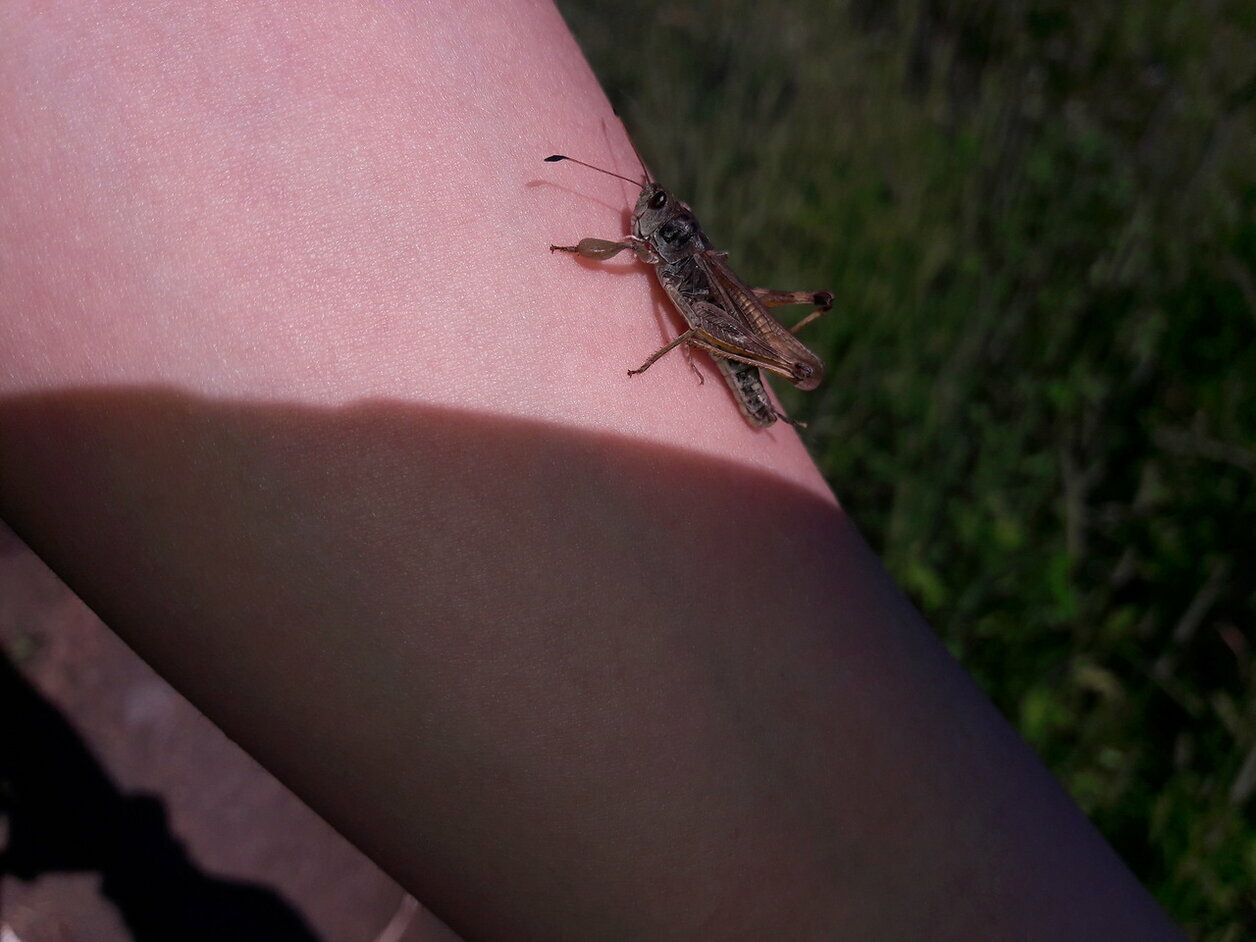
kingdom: Animalia
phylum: Arthropoda
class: Insecta
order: Orthoptera
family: Acrididae
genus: Gomphocerus
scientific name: Gomphocerus sibiricus
